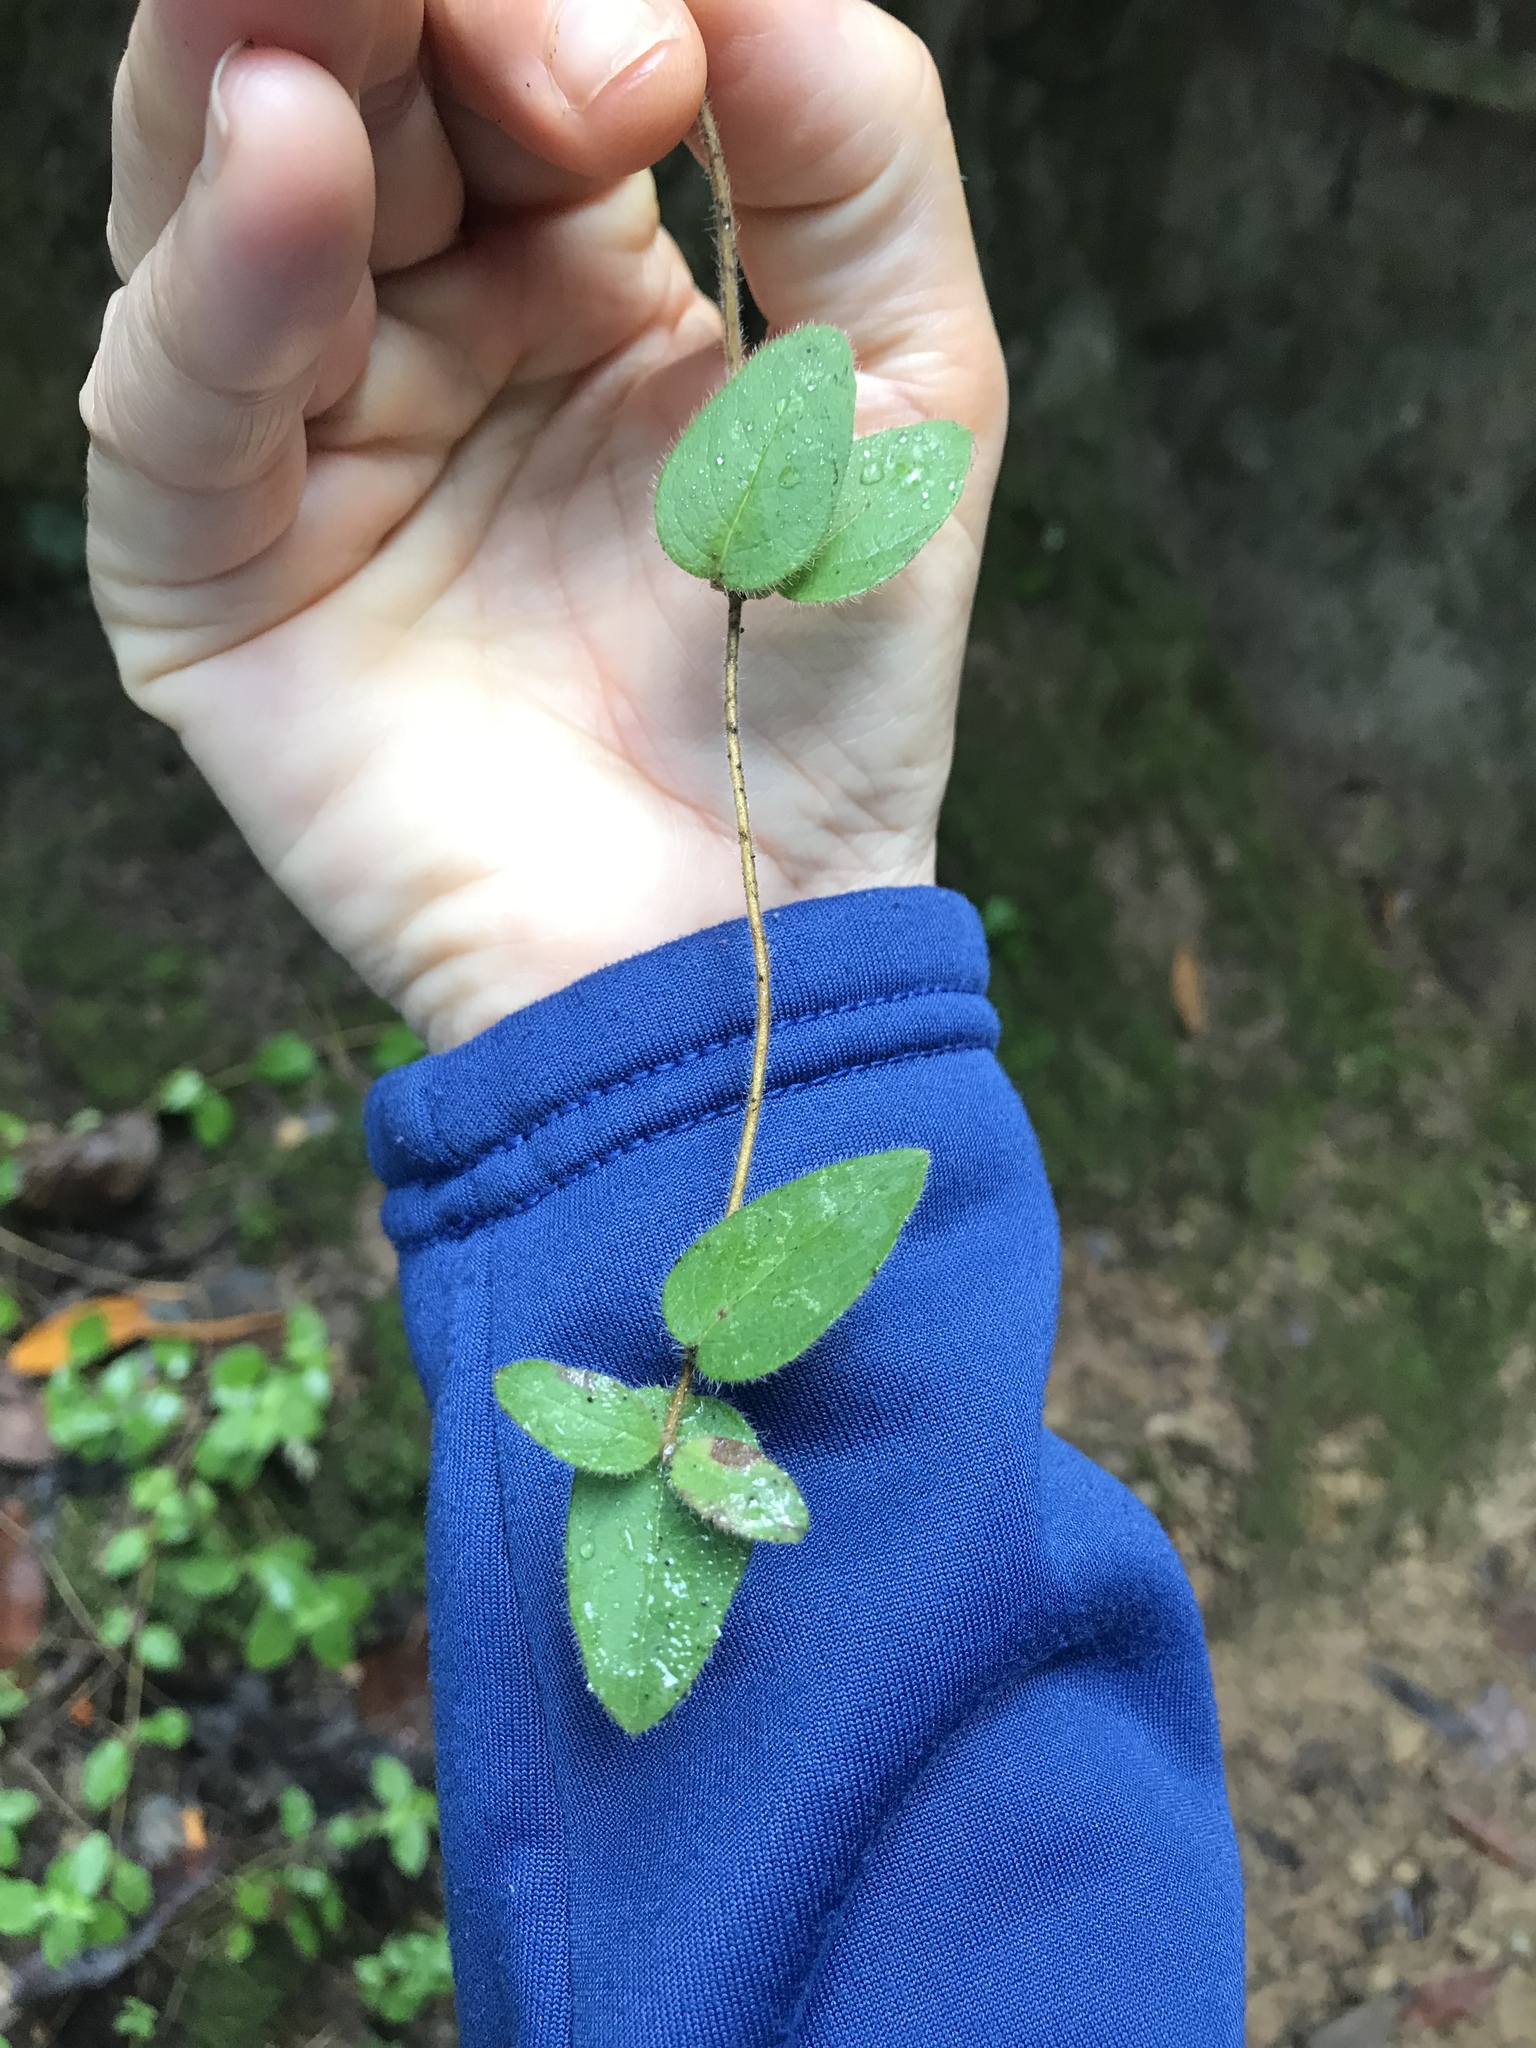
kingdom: Plantae
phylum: Tracheophyta
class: Magnoliopsida
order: Dipsacales
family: Caprifoliaceae
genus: Lonicera
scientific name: Lonicera hispidula
